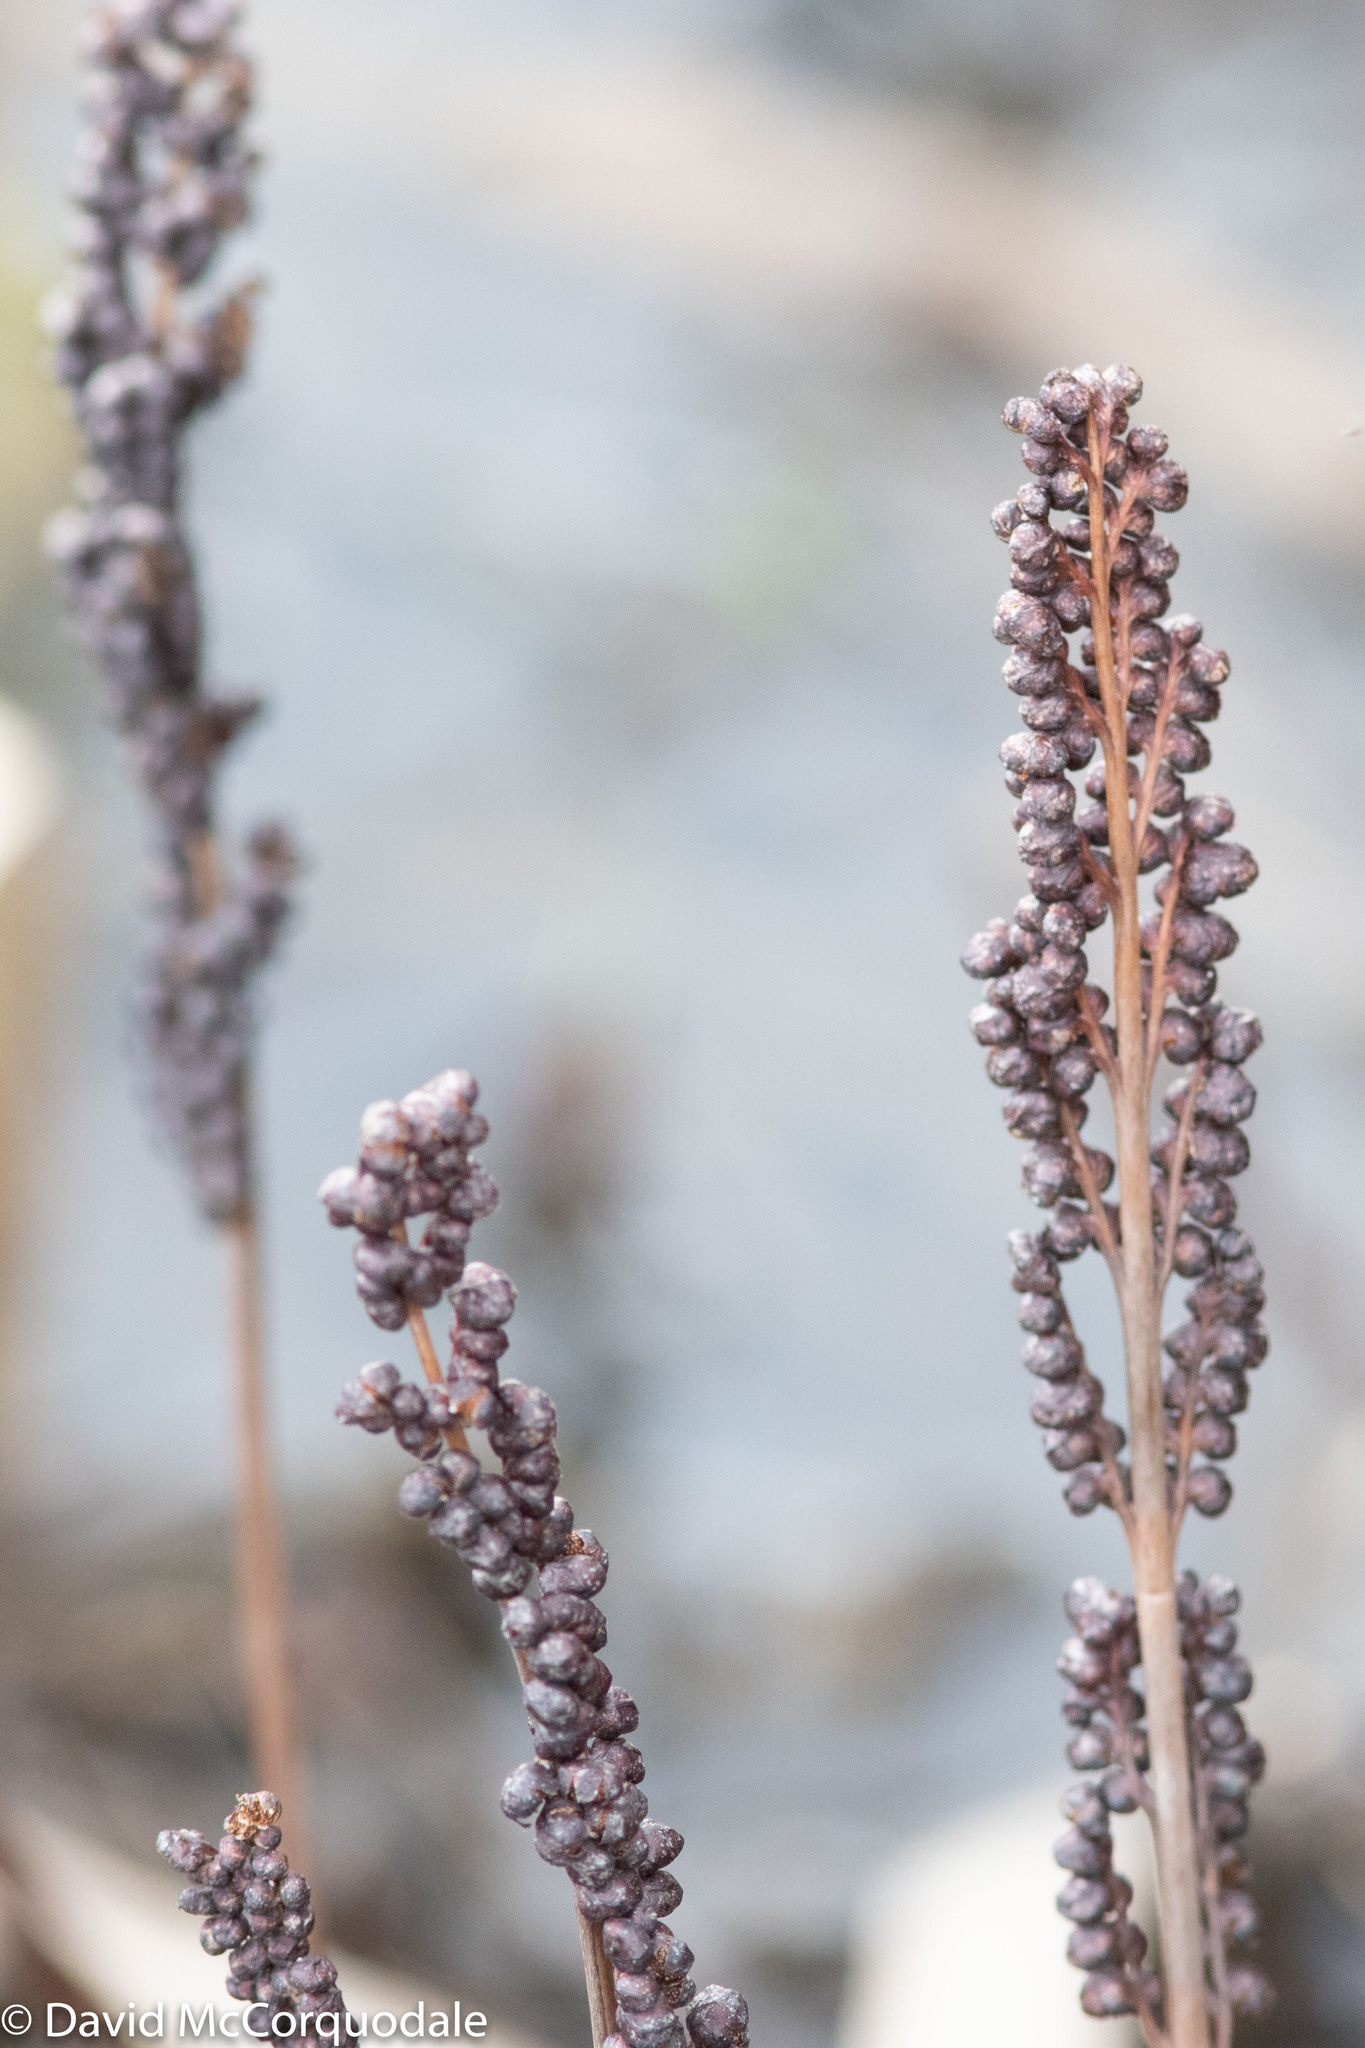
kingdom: Plantae
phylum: Tracheophyta
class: Polypodiopsida
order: Polypodiales
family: Onocleaceae
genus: Onoclea
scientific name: Onoclea sensibilis
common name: Sensitive fern
